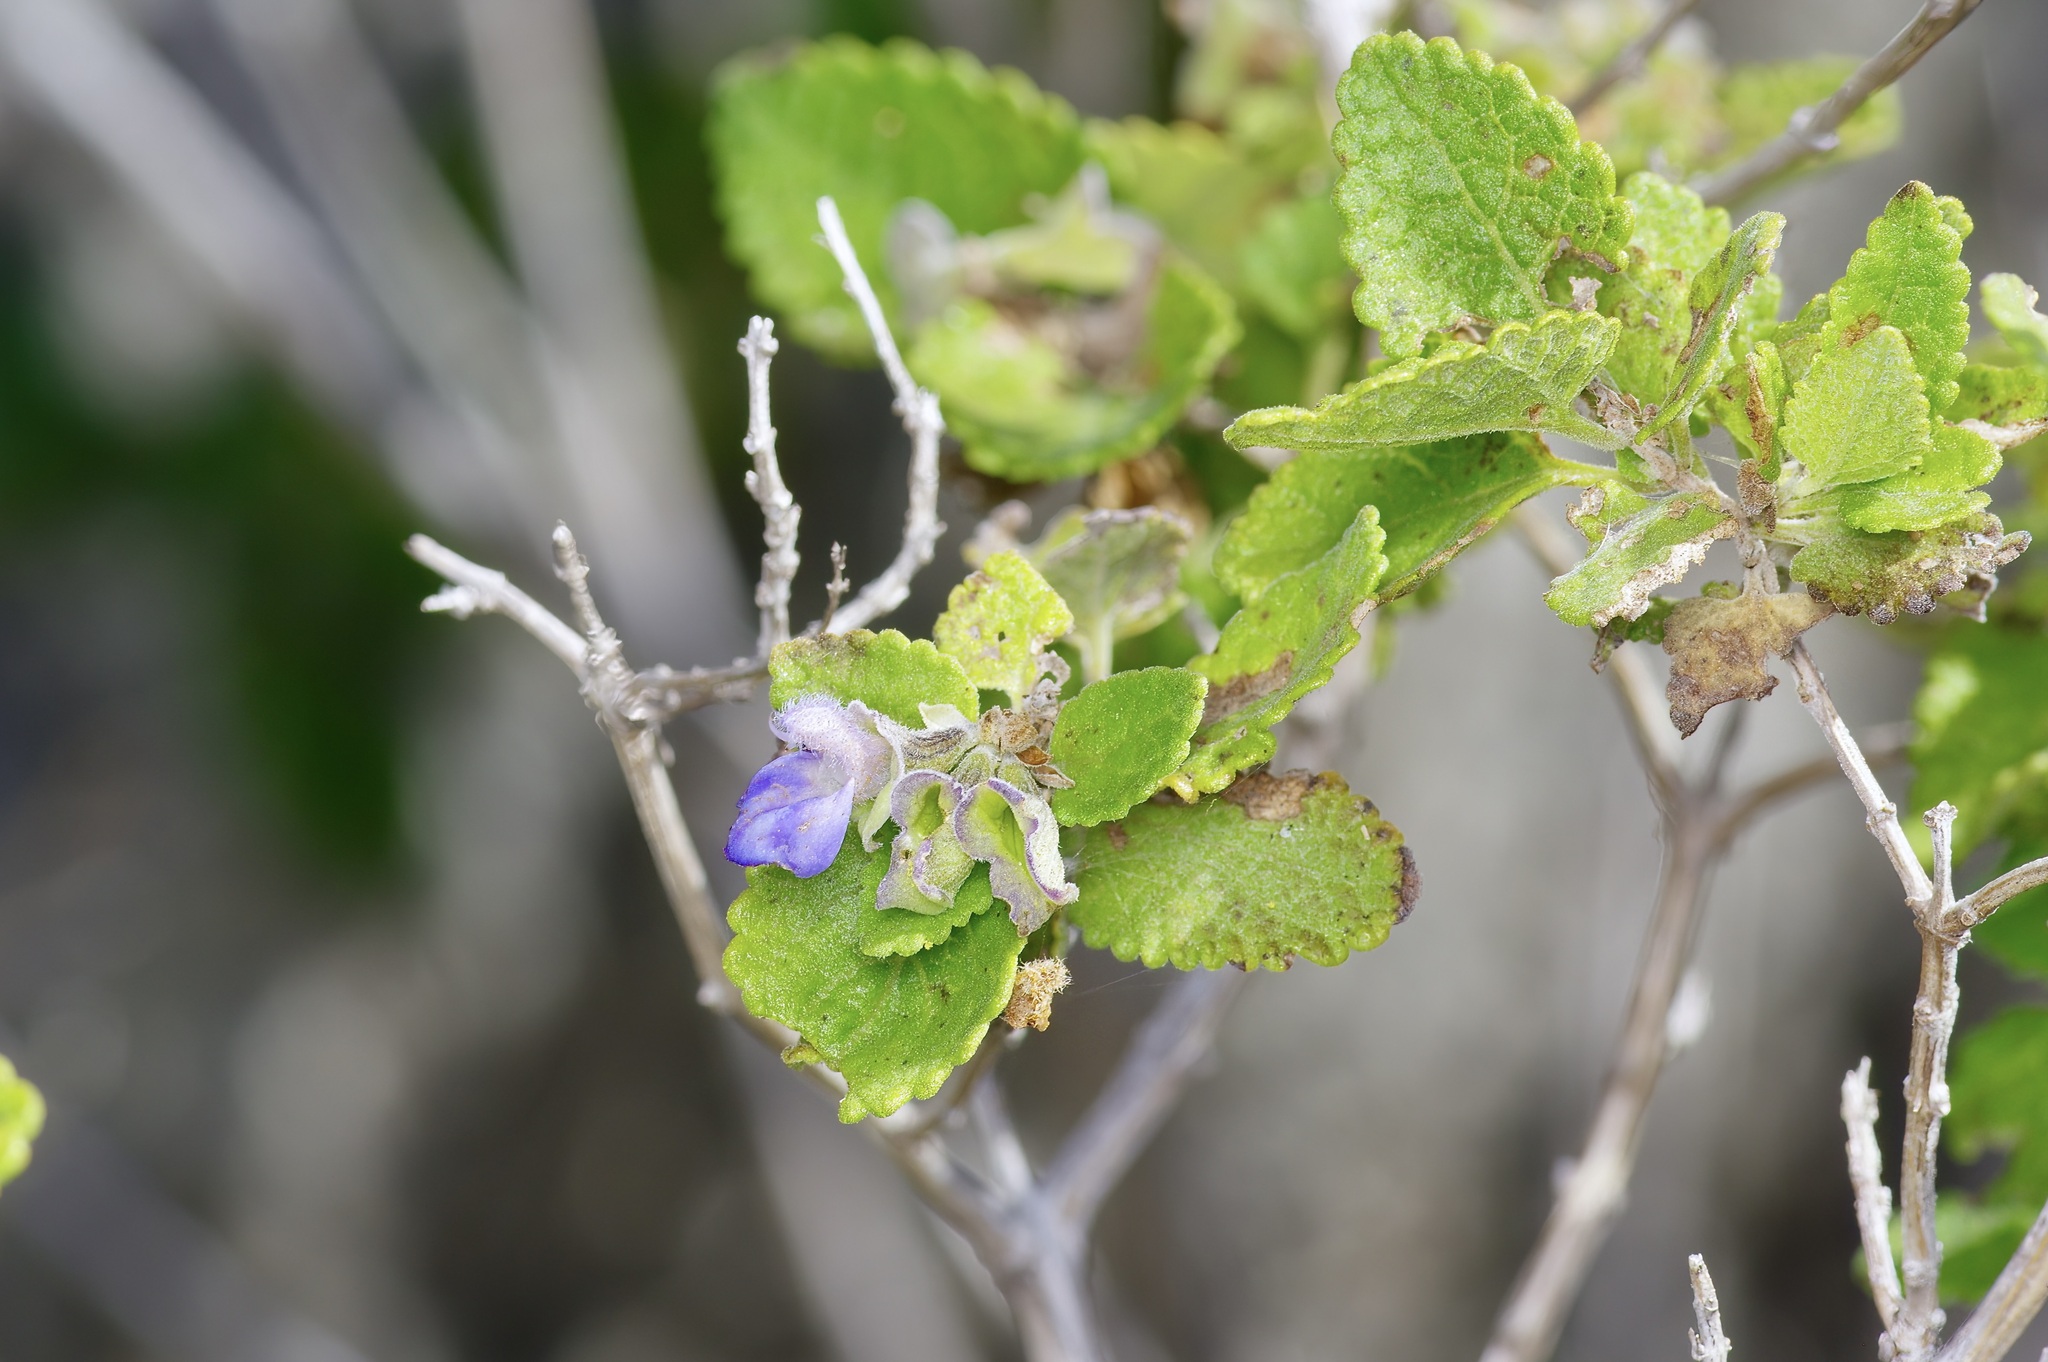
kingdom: Plantae
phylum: Tracheophyta
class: Magnoliopsida
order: Lamiales
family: Lamiaceae
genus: Salvia
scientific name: Salvia ballotiflora
